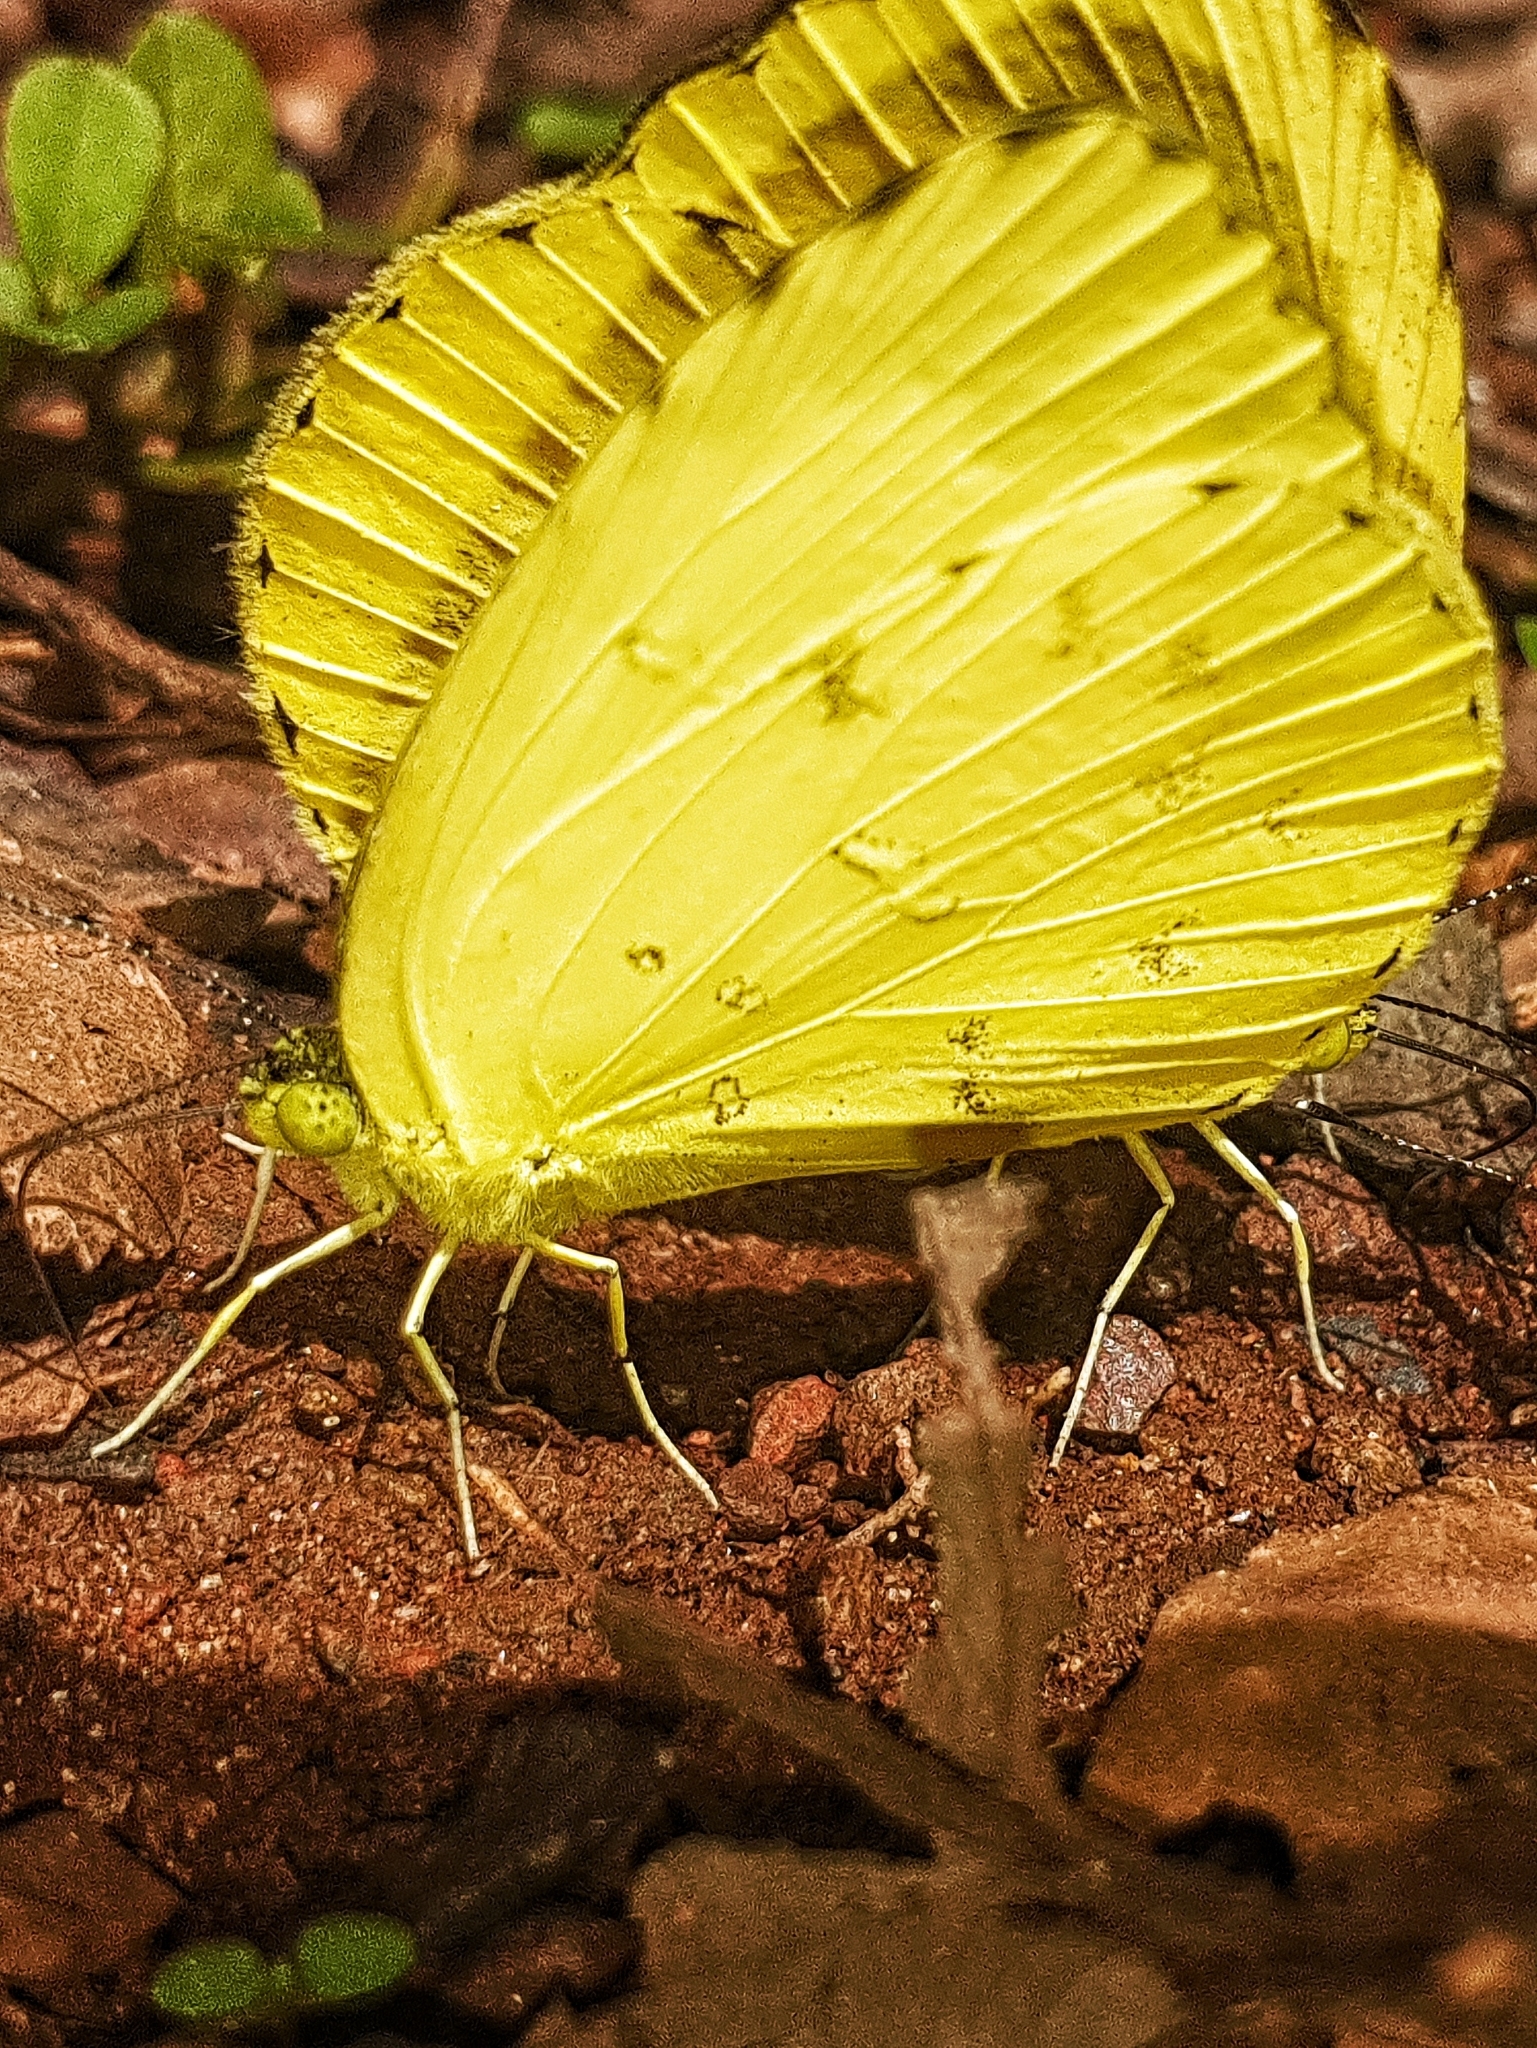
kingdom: Animalia
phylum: Arthropoda
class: Insecta
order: Lepidoptera
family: Pieridae
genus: Eurema
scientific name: Eurema hecabe
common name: Pale grass yellow
